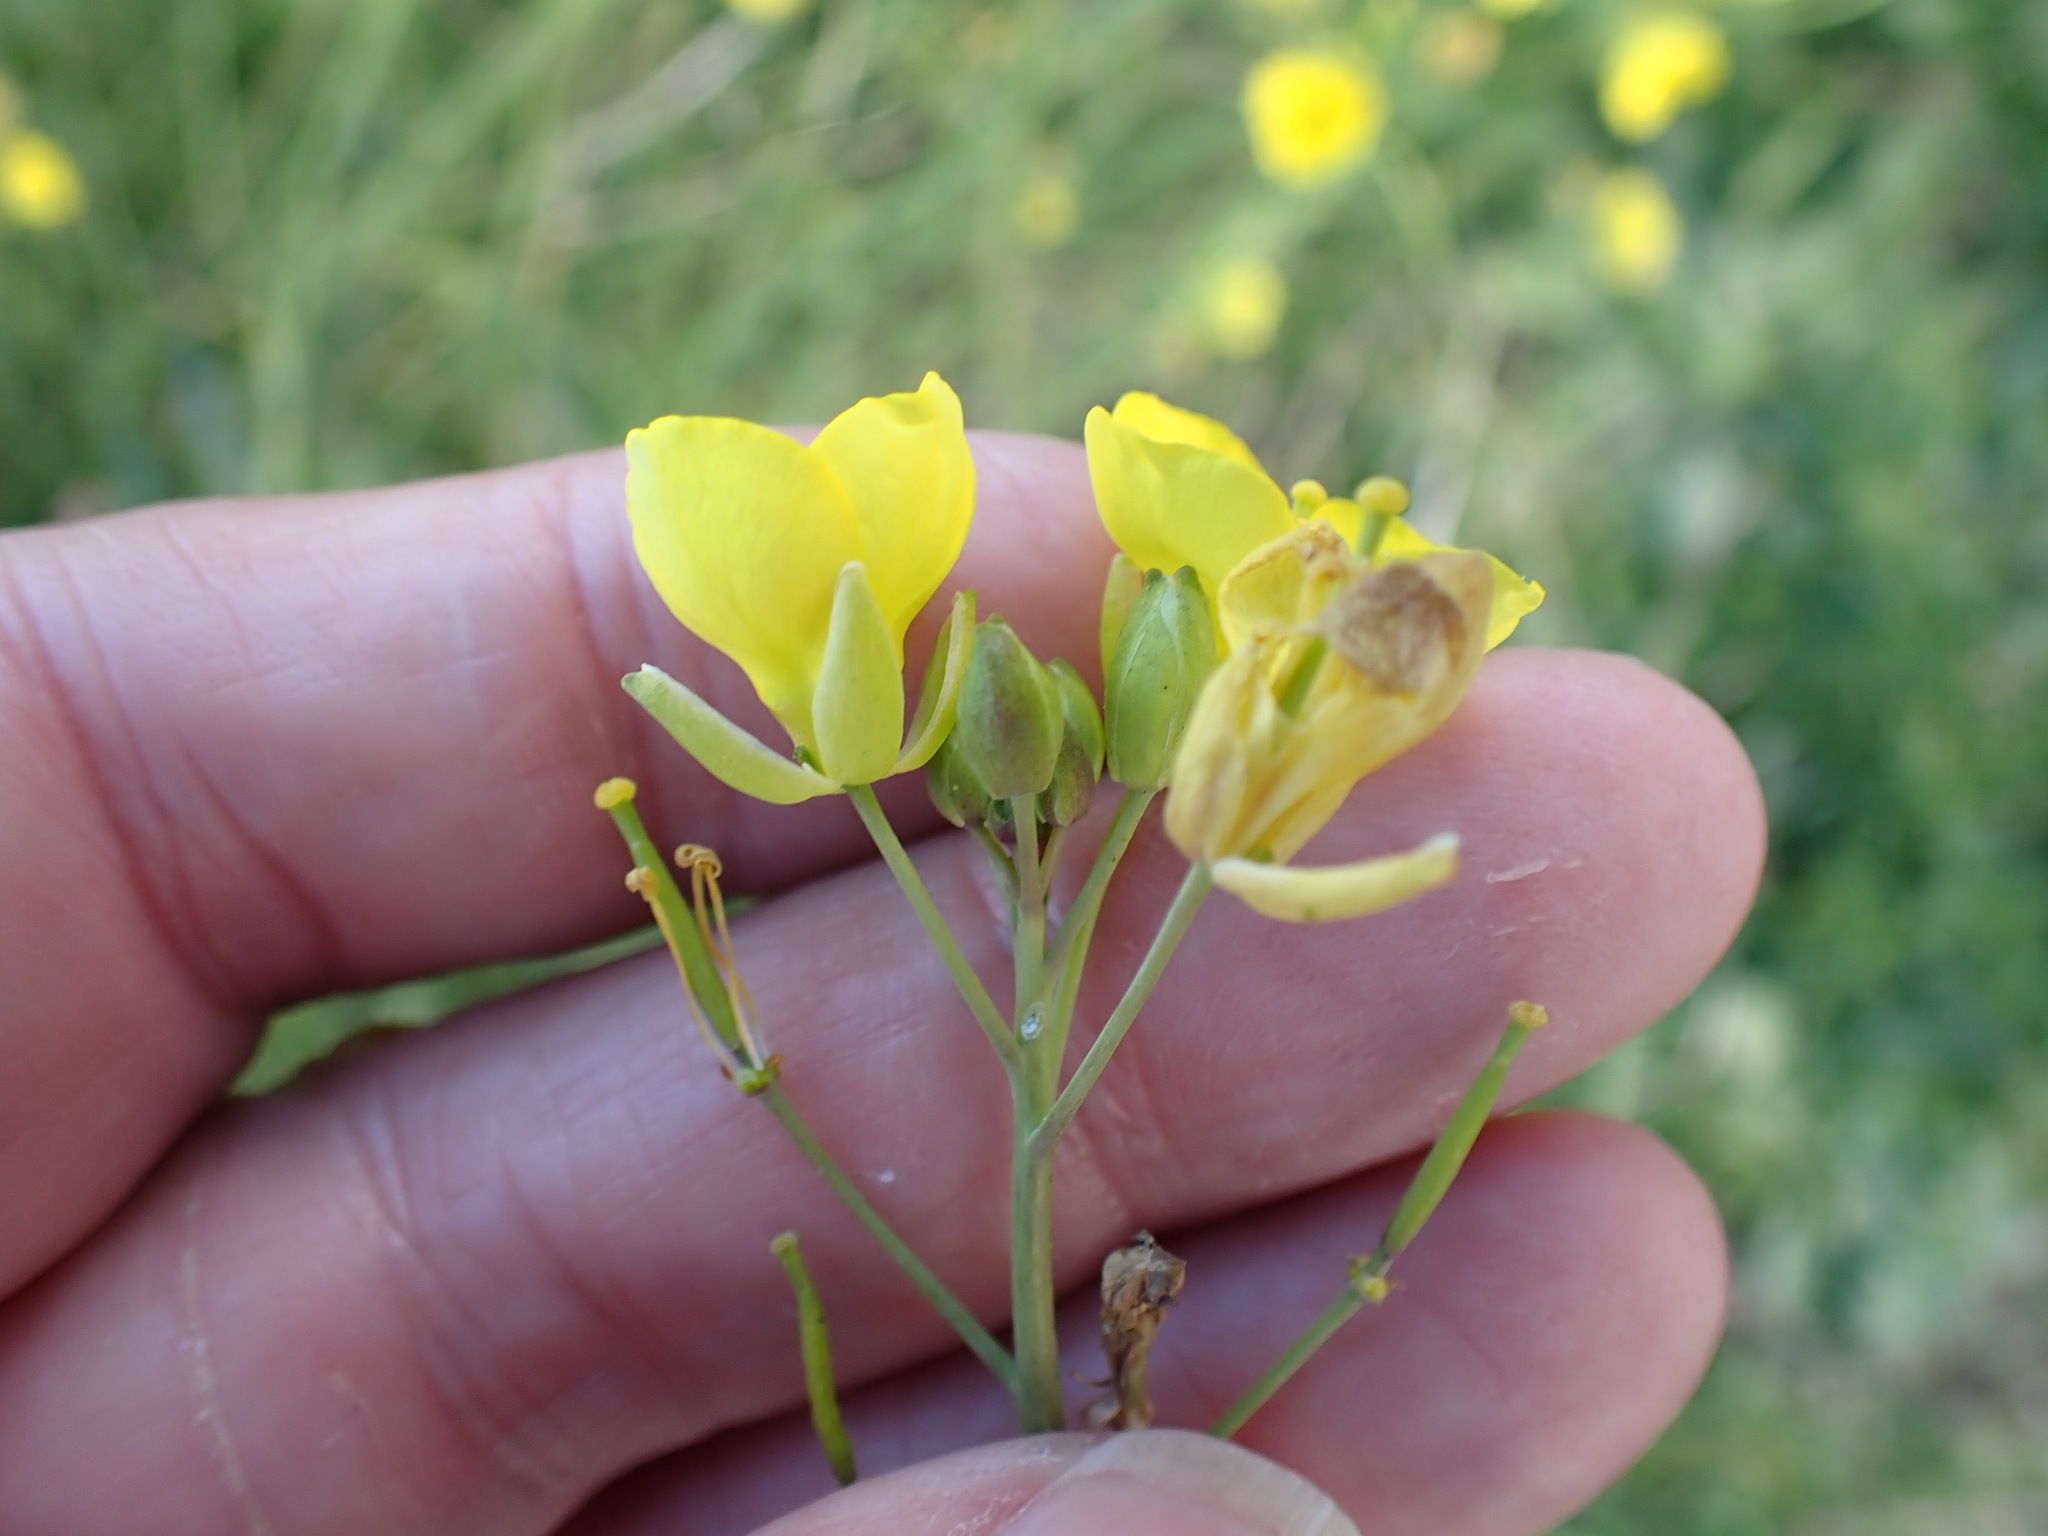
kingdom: Plantae
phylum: Tracheophyta
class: Magnoliopsida
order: Brassicales
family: Brassicaceae
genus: Diplotaxis
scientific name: Diplotaxis tenuifolia
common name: Perennial wall-rocket
